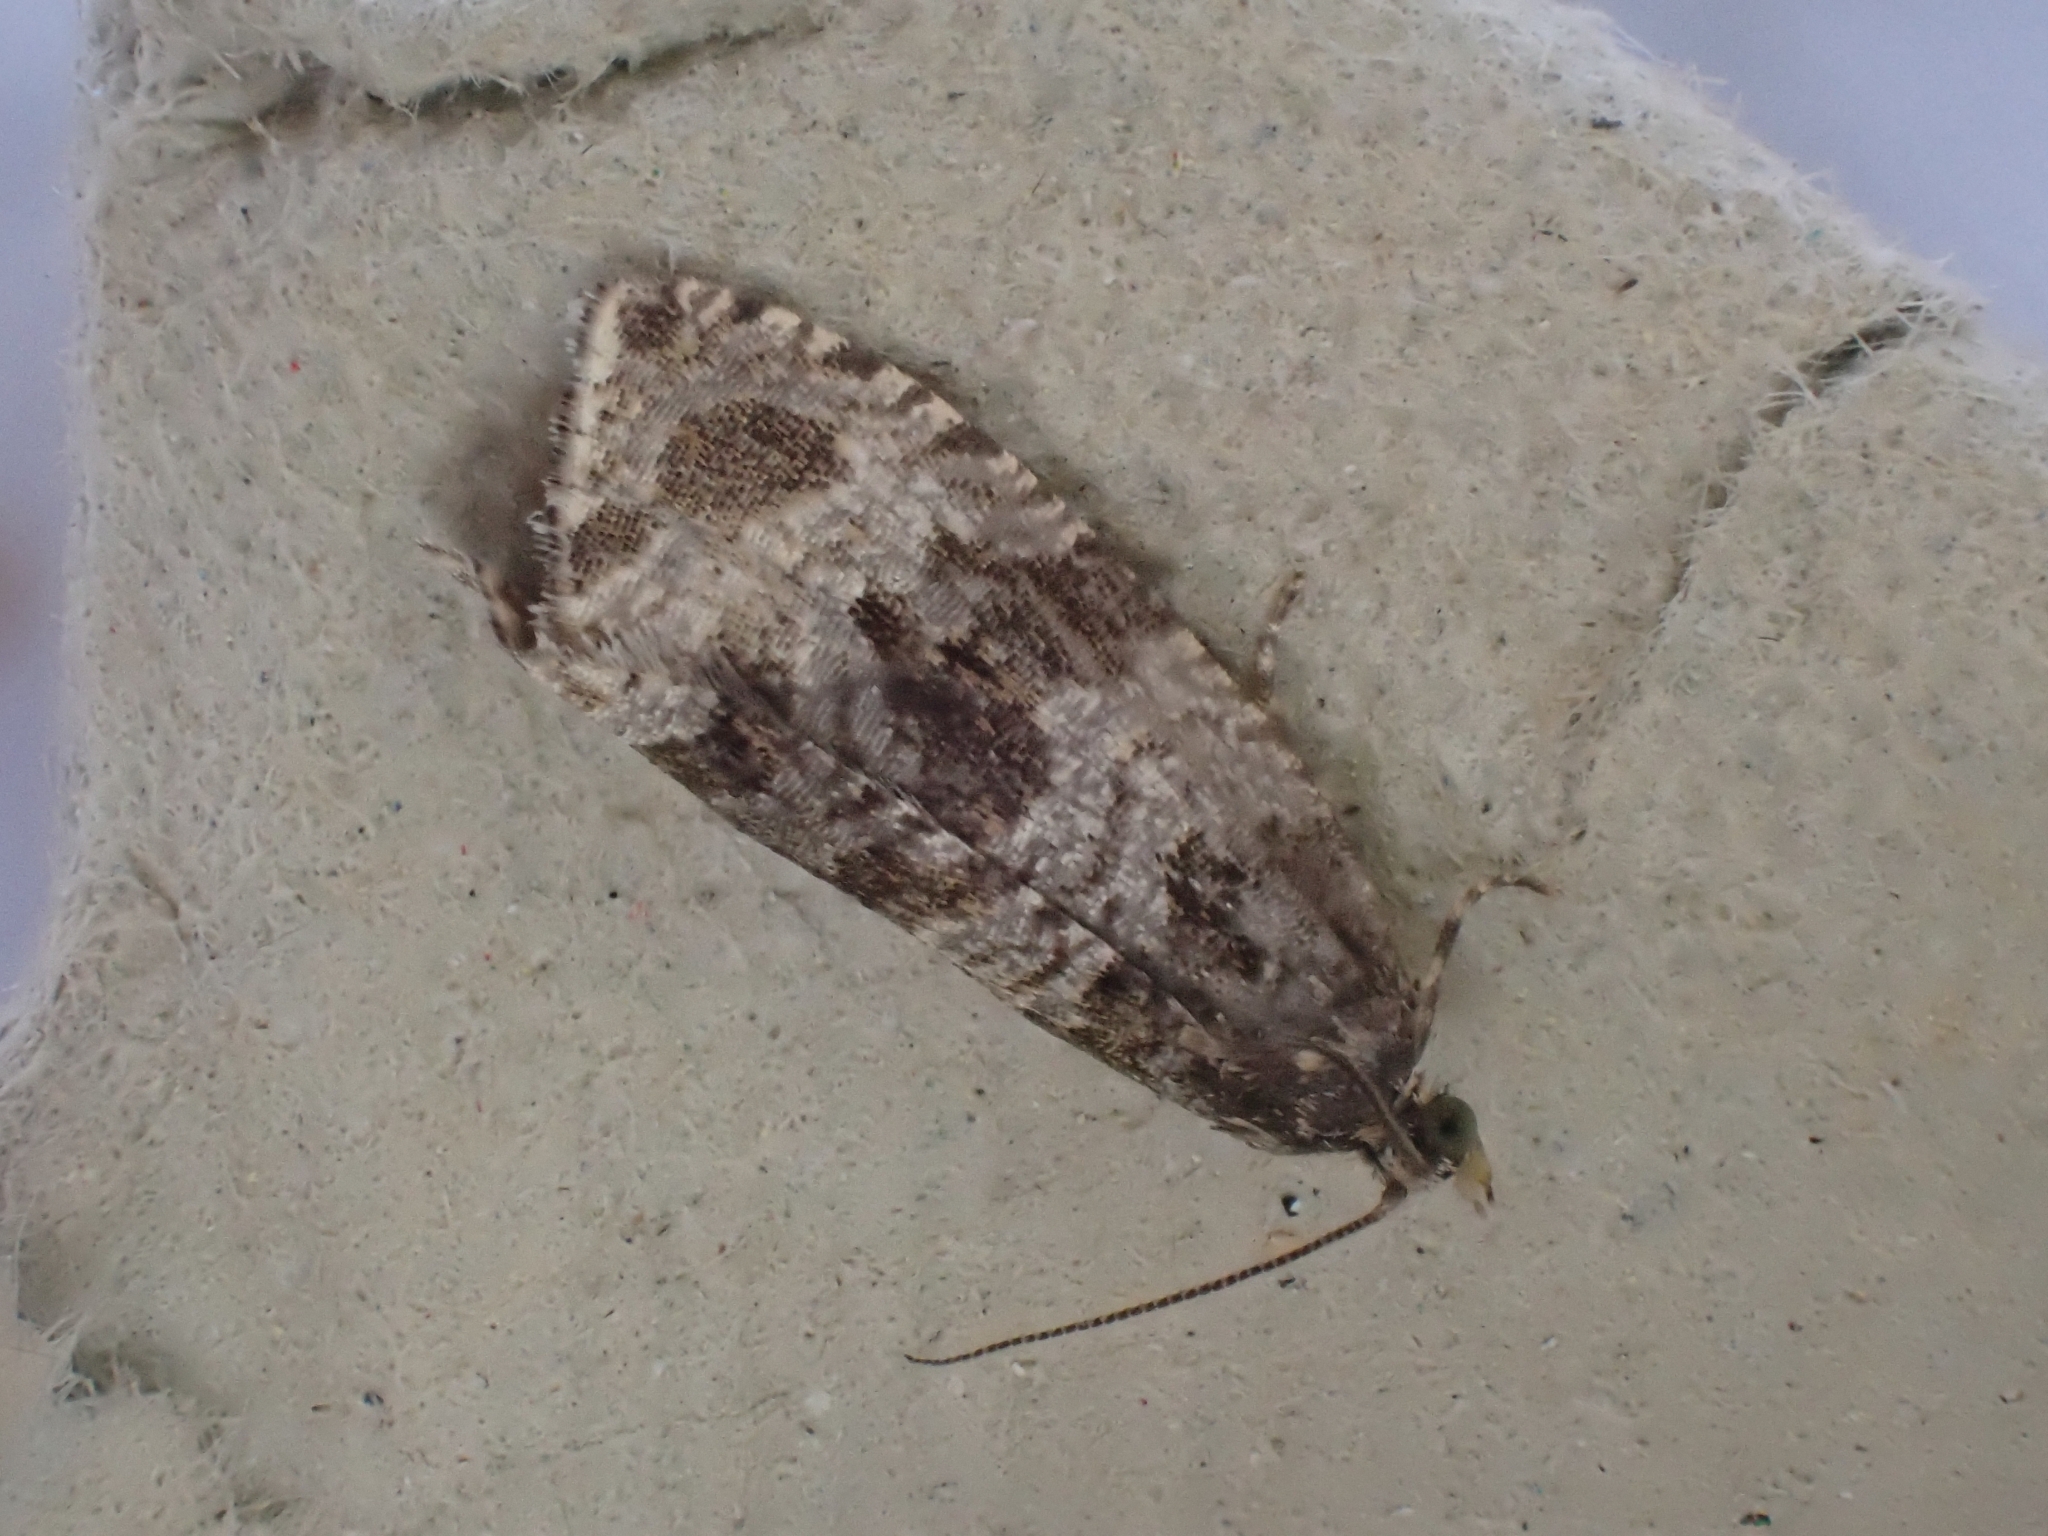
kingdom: Animalia
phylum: Arthropoda
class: Insecta
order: Lepidoptera
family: Tortricidae
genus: Orthotaenia
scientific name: Orthotaenia undulana
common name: Woodland marble
